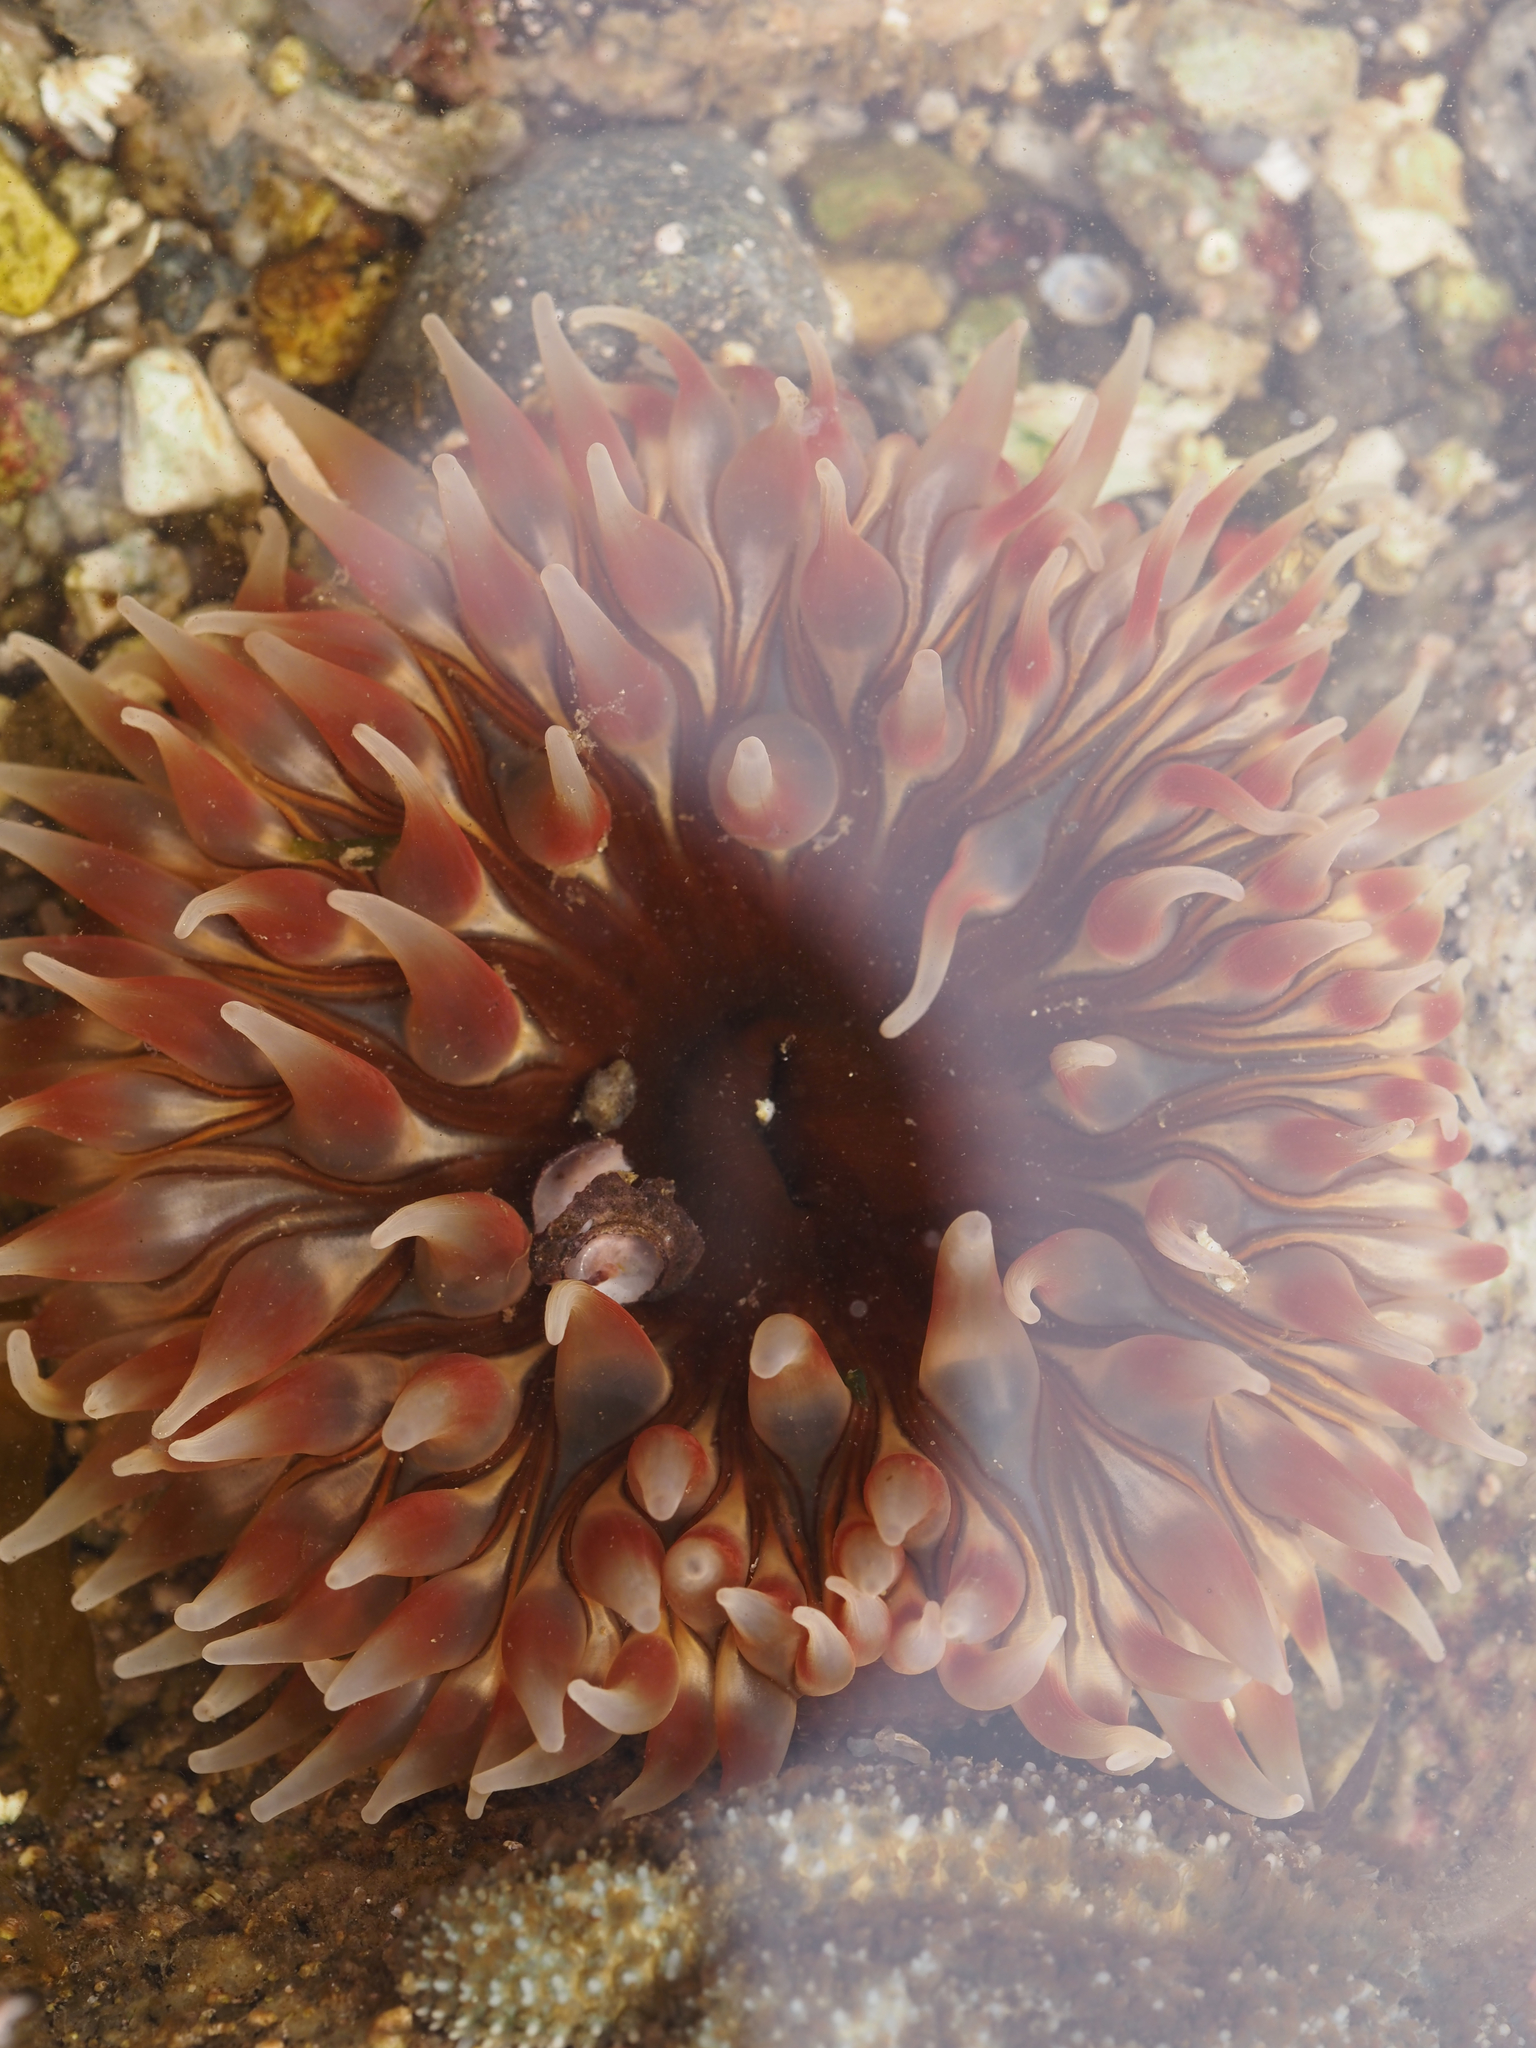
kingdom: Animalia
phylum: Cnidaria
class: Anthozoa
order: Actiniaria
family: Actiniidae
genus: Urticina
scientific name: Urticina clandestina
